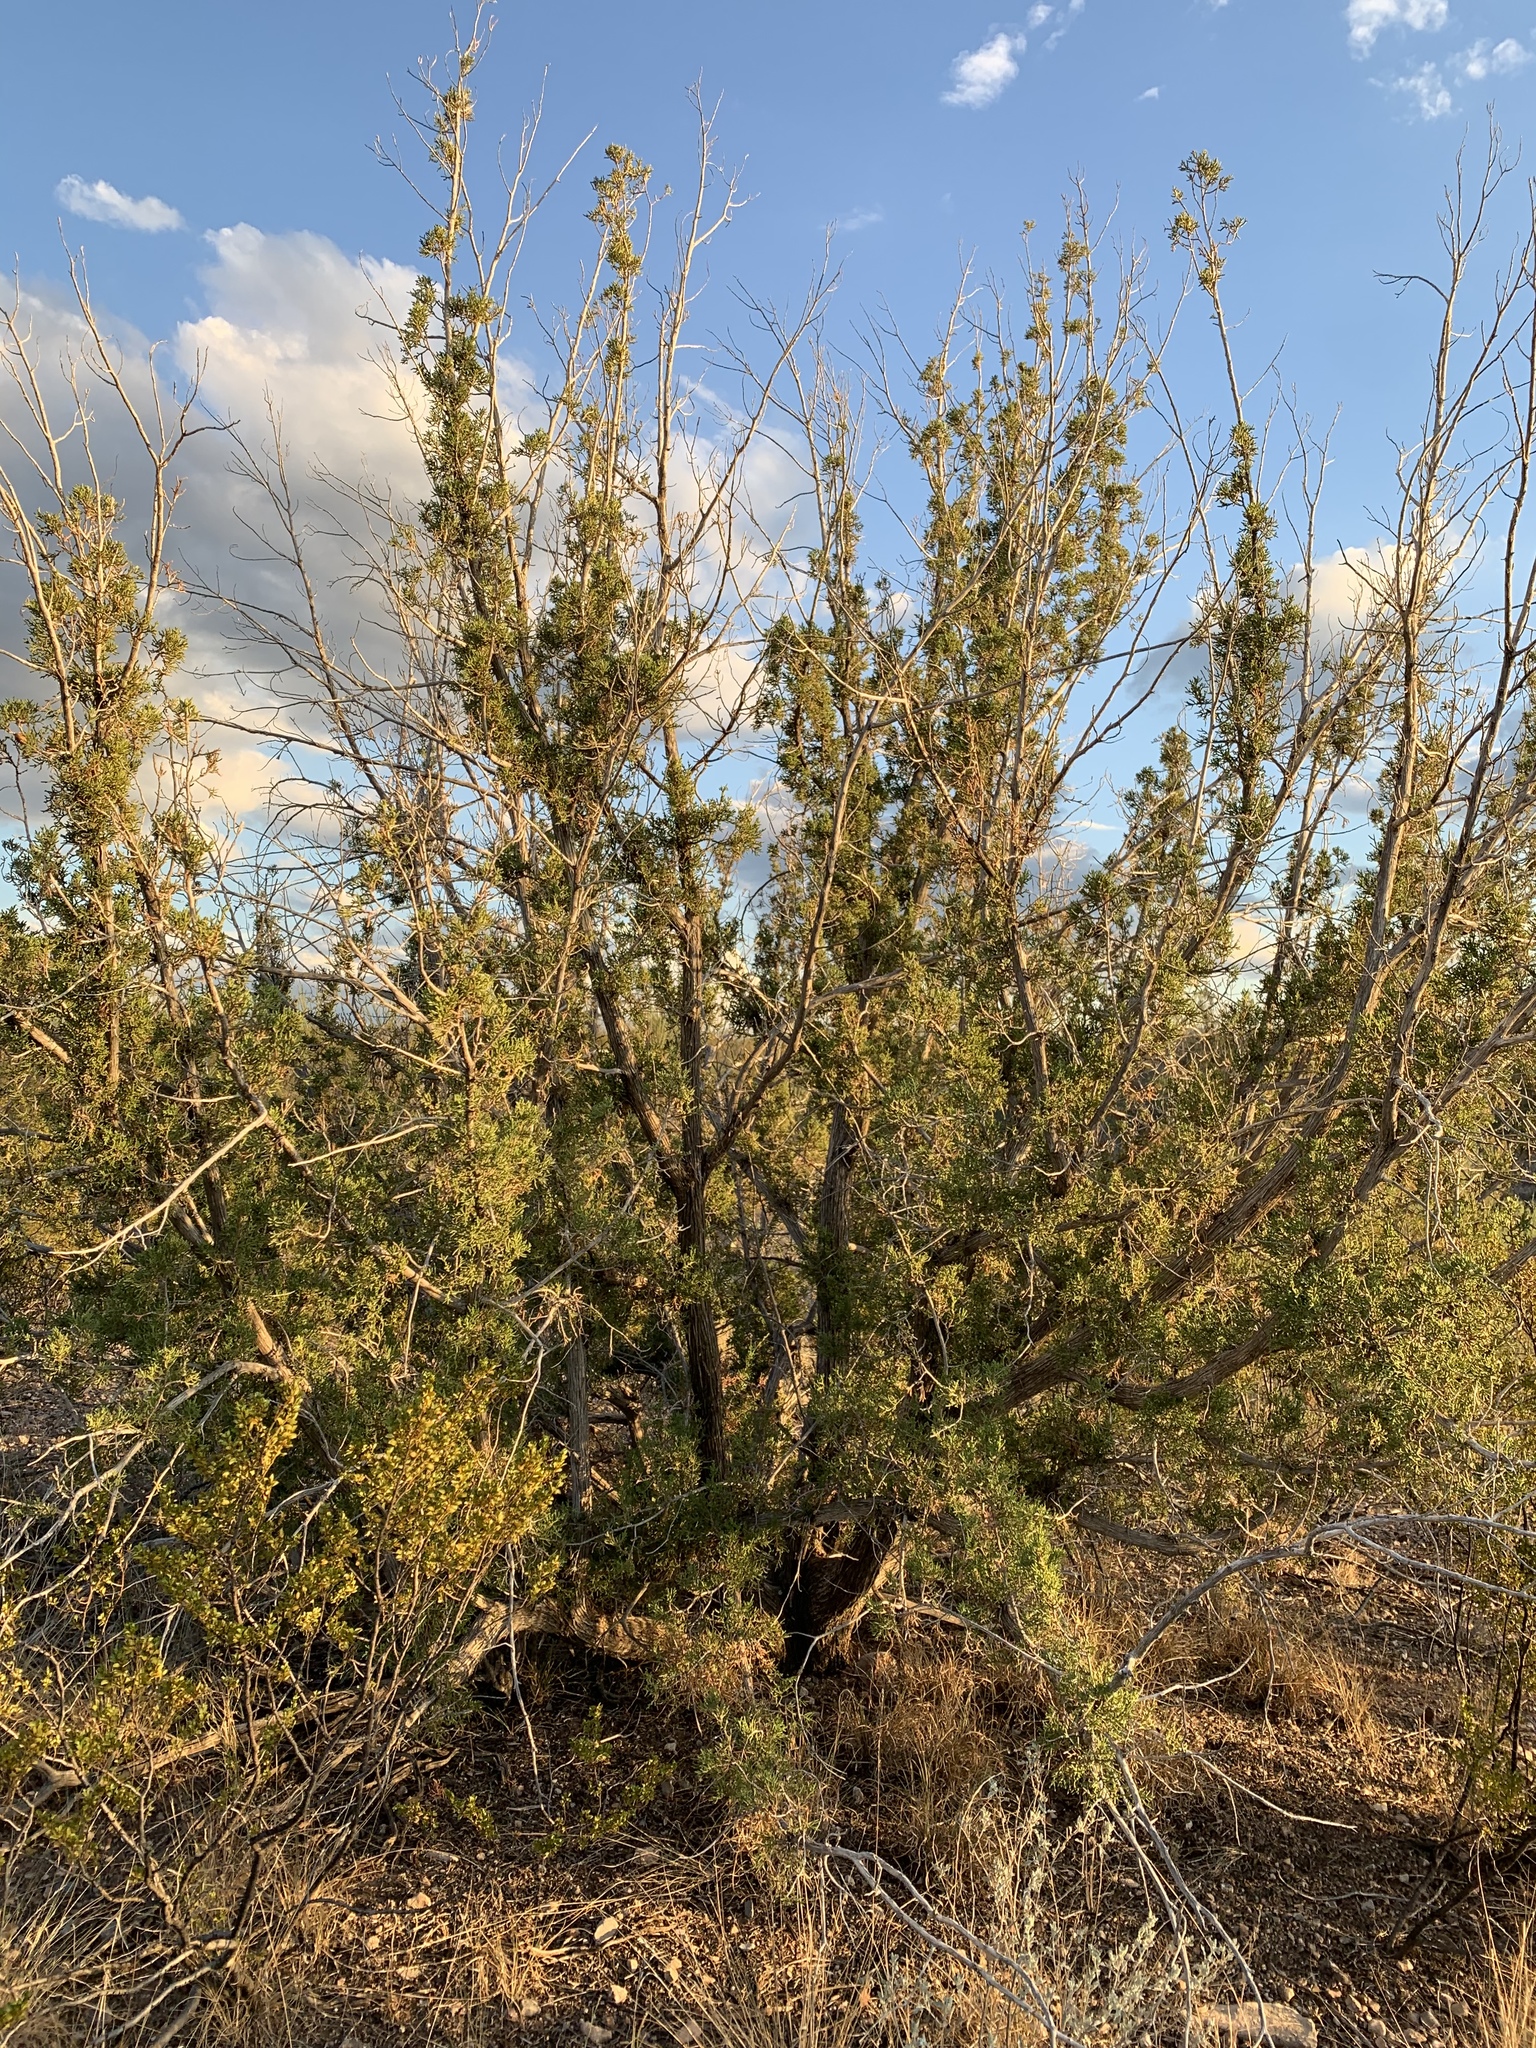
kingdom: Plantae
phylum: Tracheophyta
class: Pinopsida
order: Pinales
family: Cupressaceae
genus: Juniperus
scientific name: Juniperus monosperma
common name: One-seed juniper
